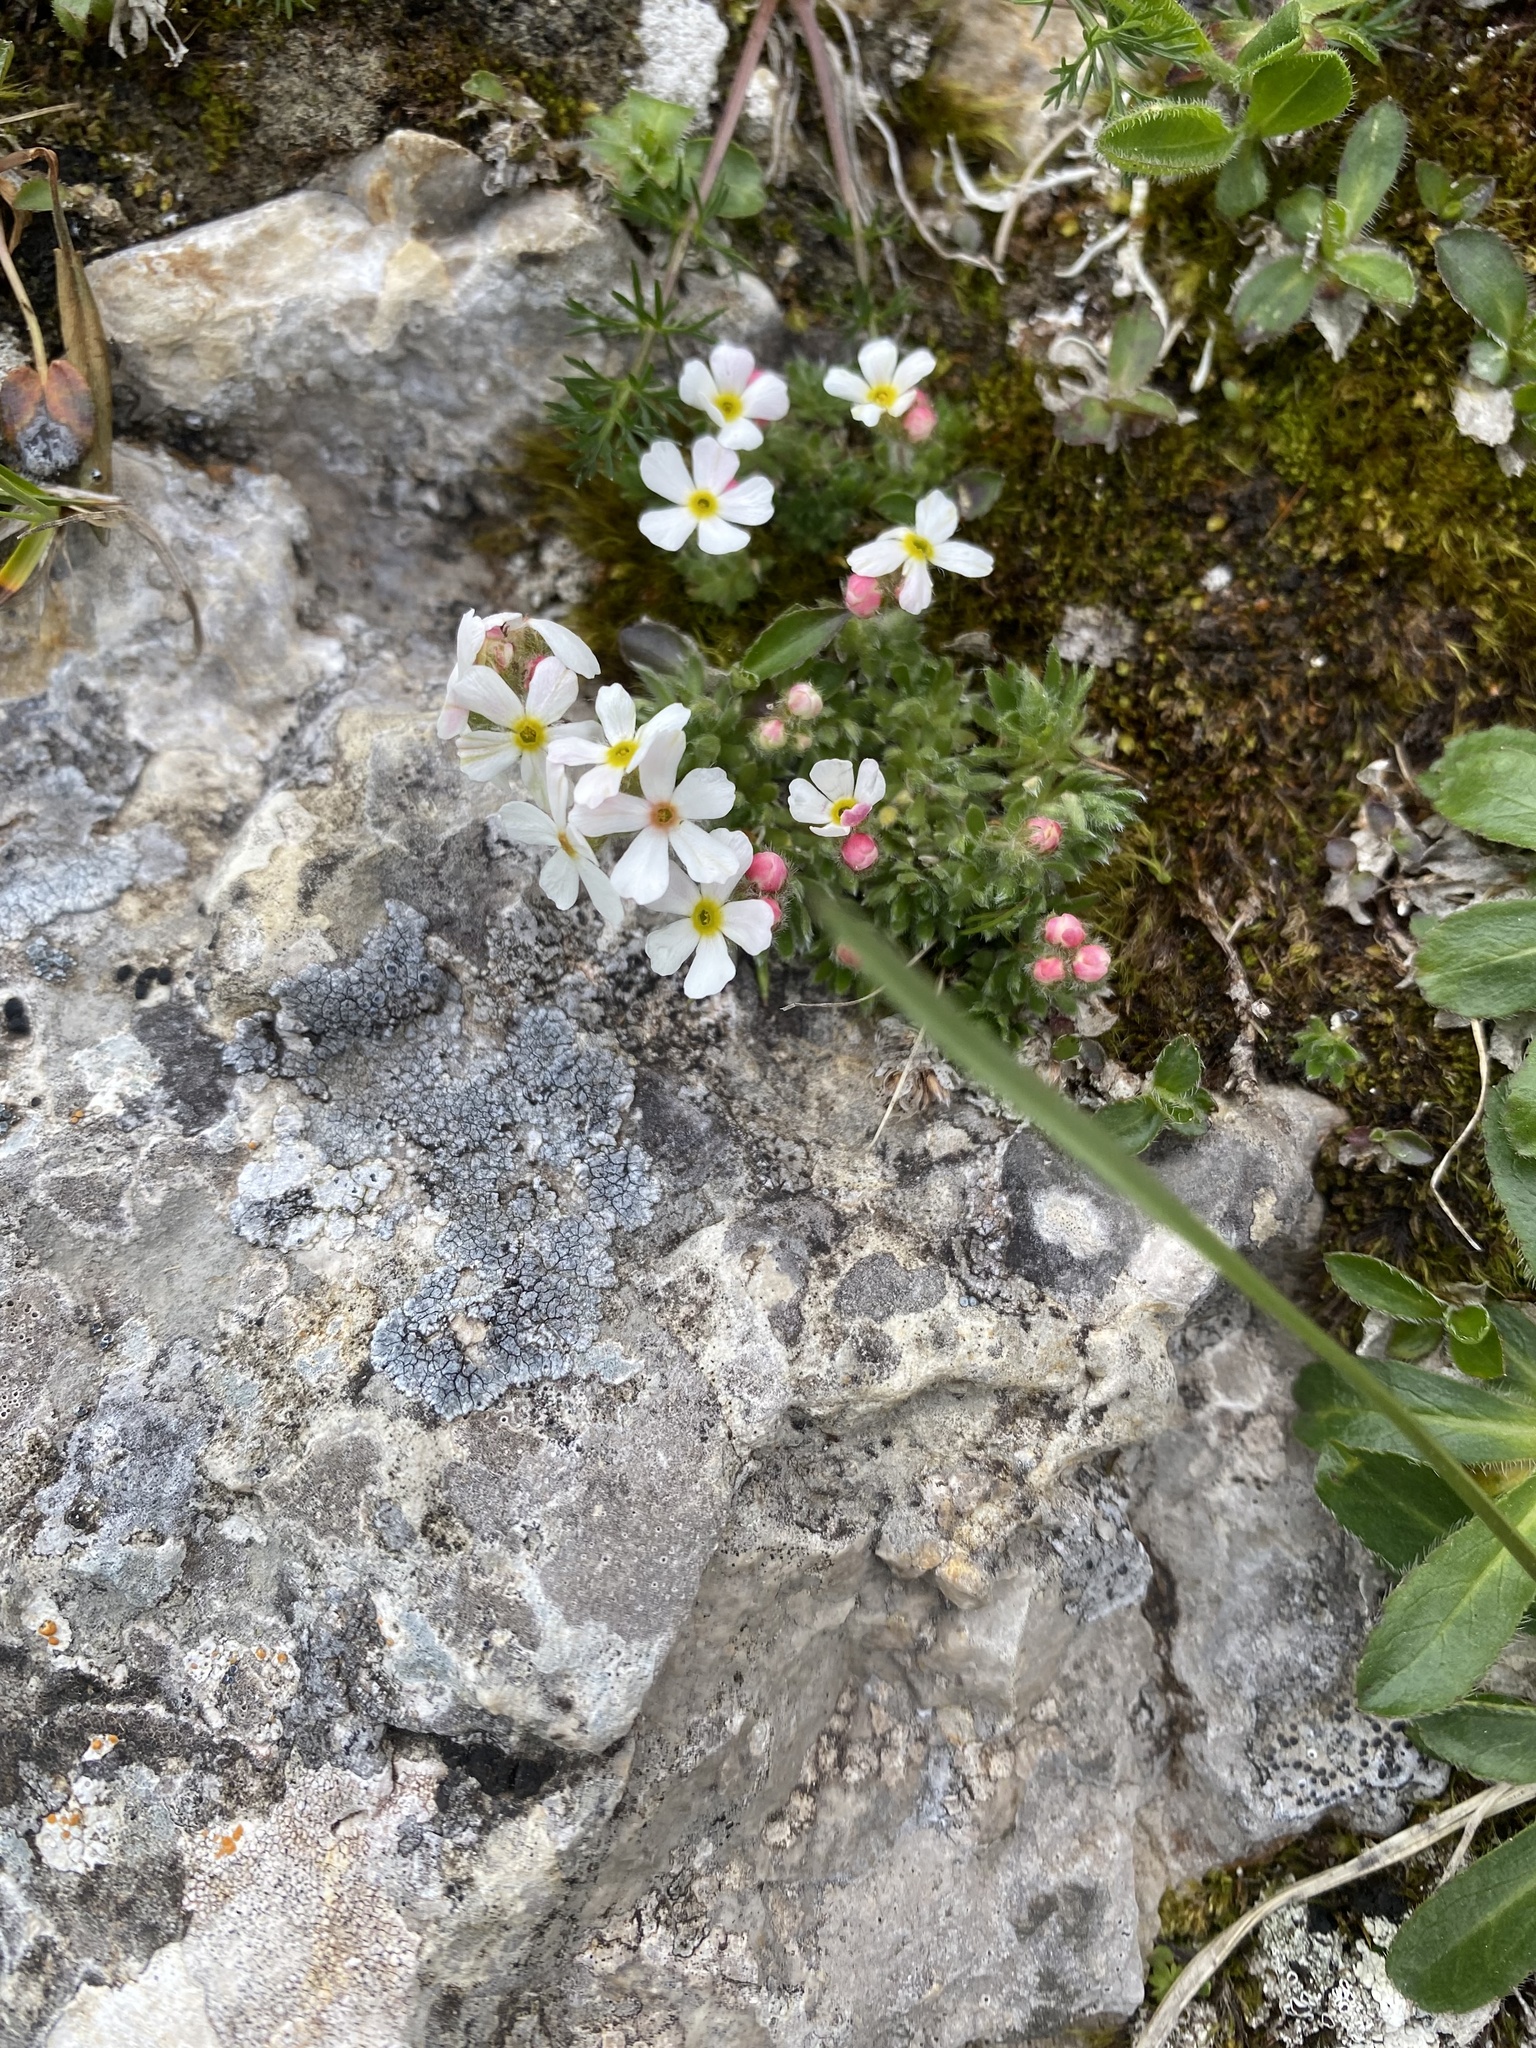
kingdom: Plantae
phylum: Tracheophyta
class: Magnoliopsida
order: Ericales
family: Primulaceae
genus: Androsace
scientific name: Androsace villosa
